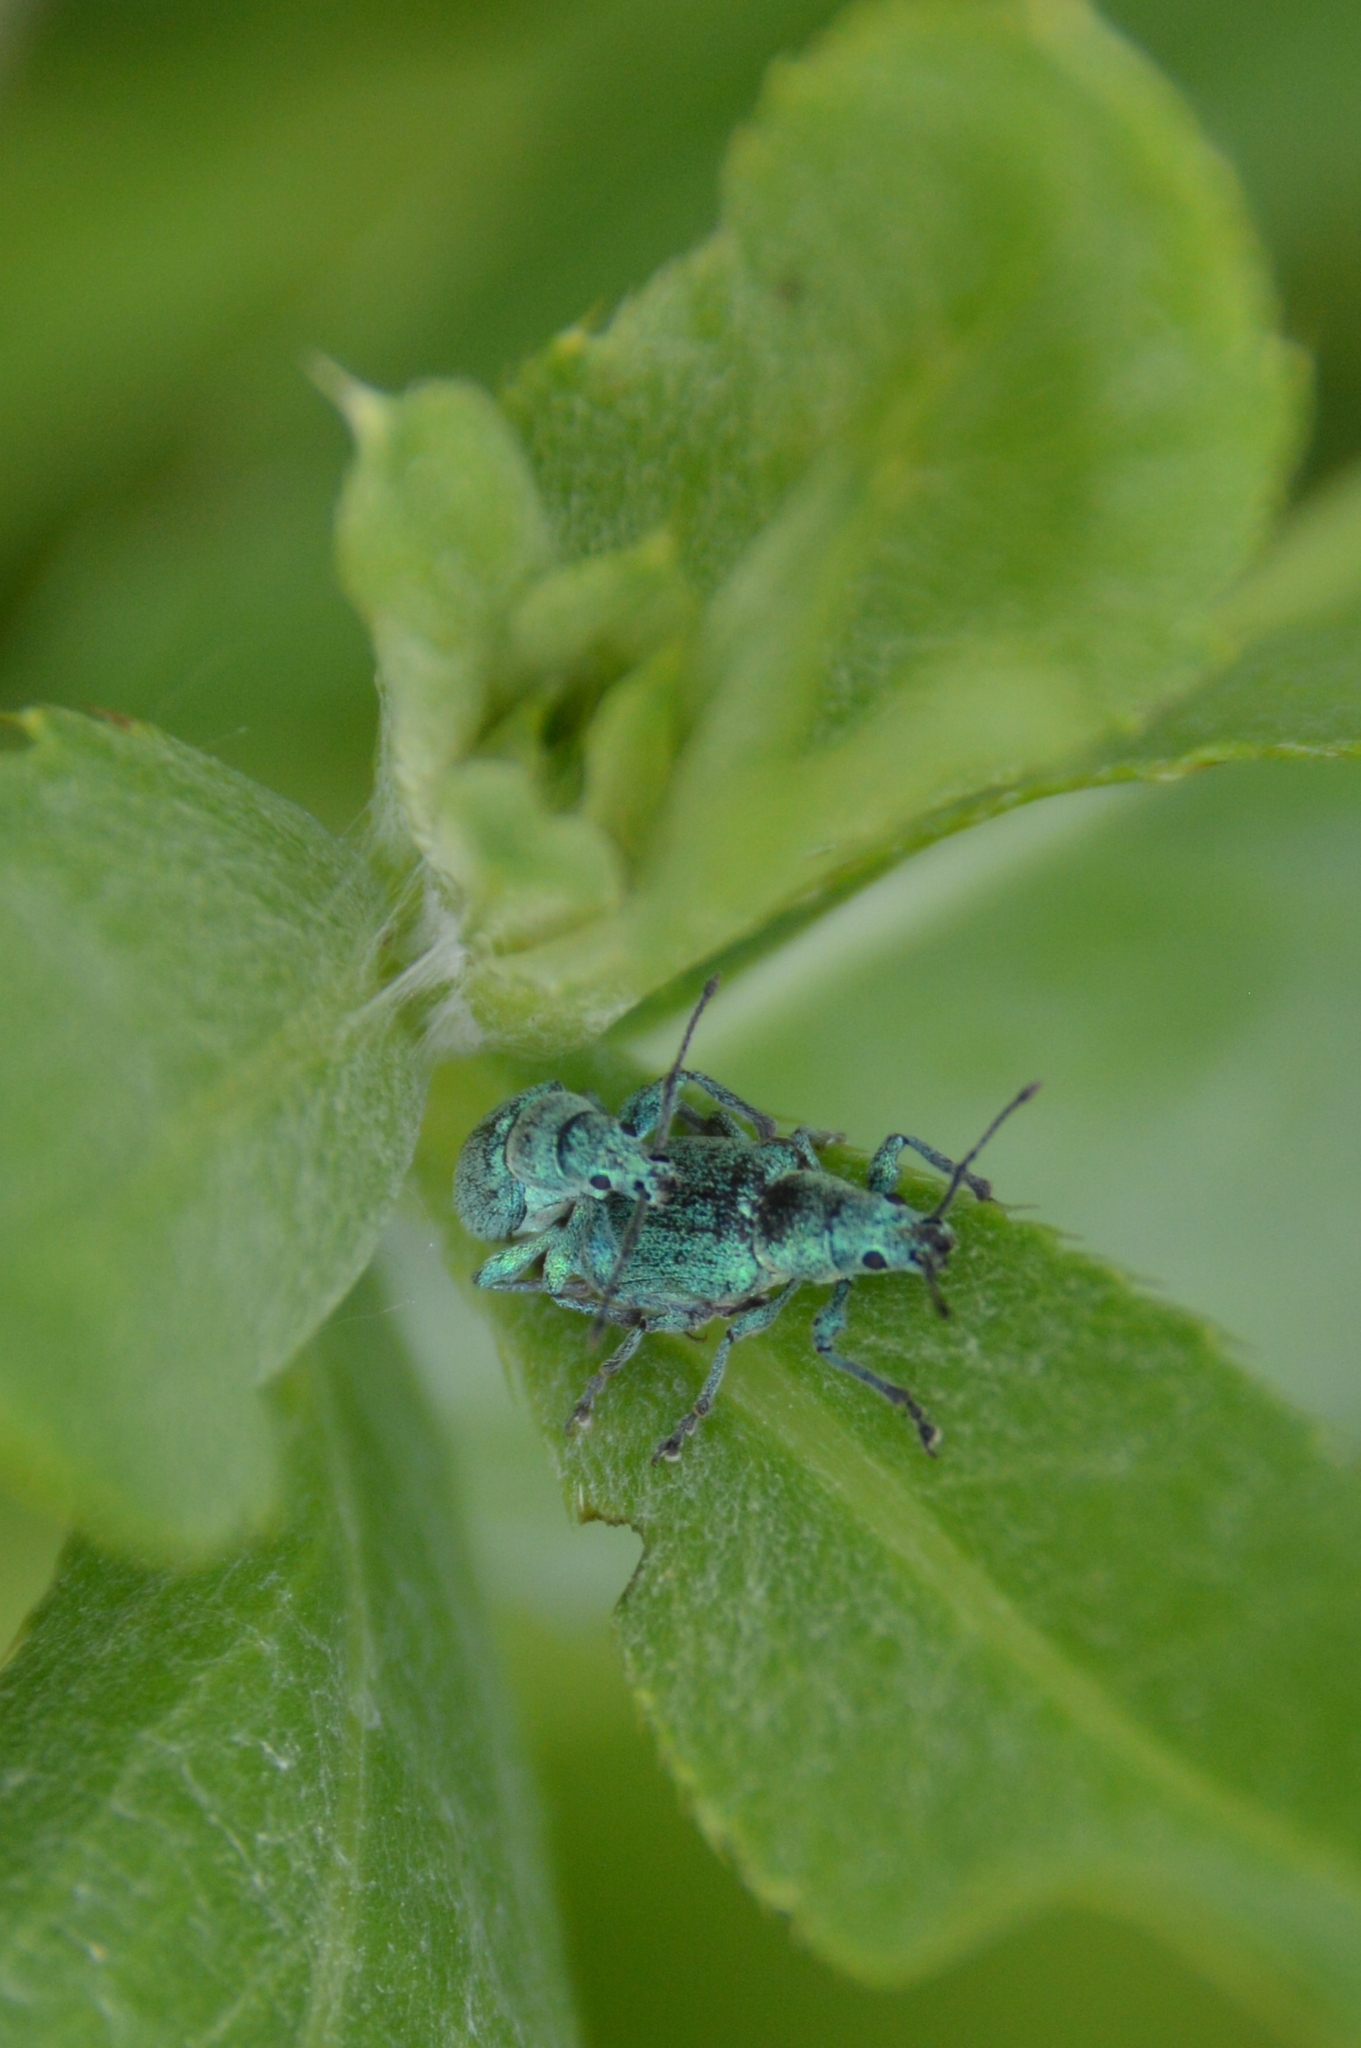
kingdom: Animalia
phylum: Arthropoda
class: Insecta
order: Coleoptera
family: Curculionidae
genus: Phyllobius
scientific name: Phyllobius thalassinus
